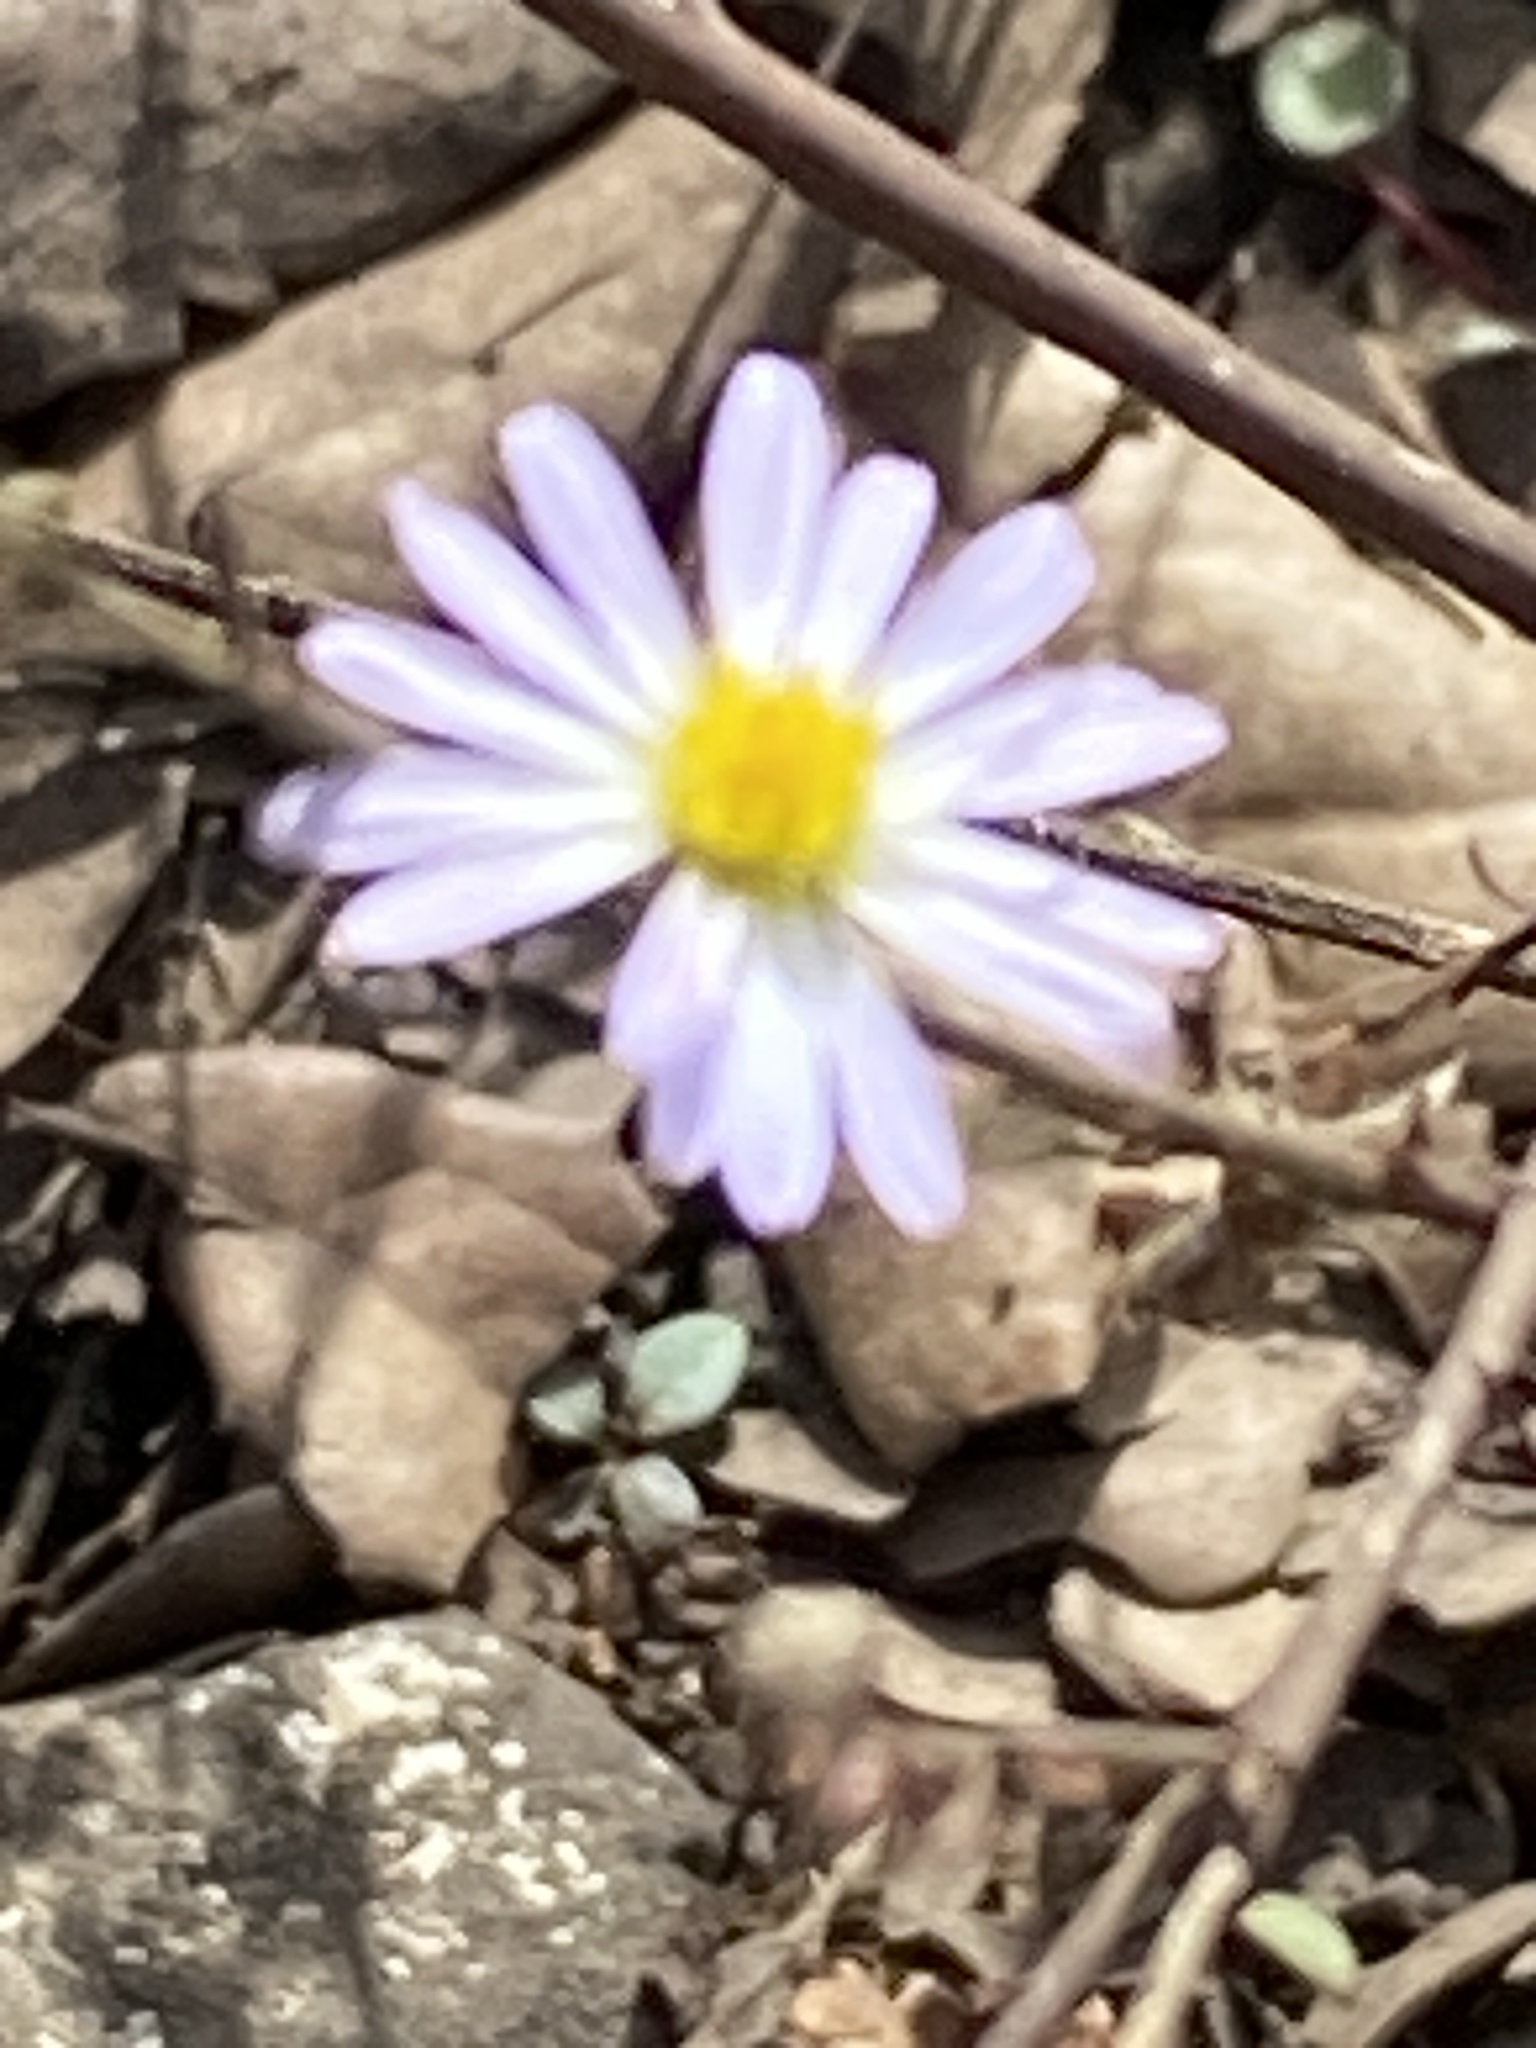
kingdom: Plantae
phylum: Tracheophyta
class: Magnoliopsida
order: Asterales
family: Asteraceae
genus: Symphyotrichum
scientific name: Symphyotrichum divaricatum
